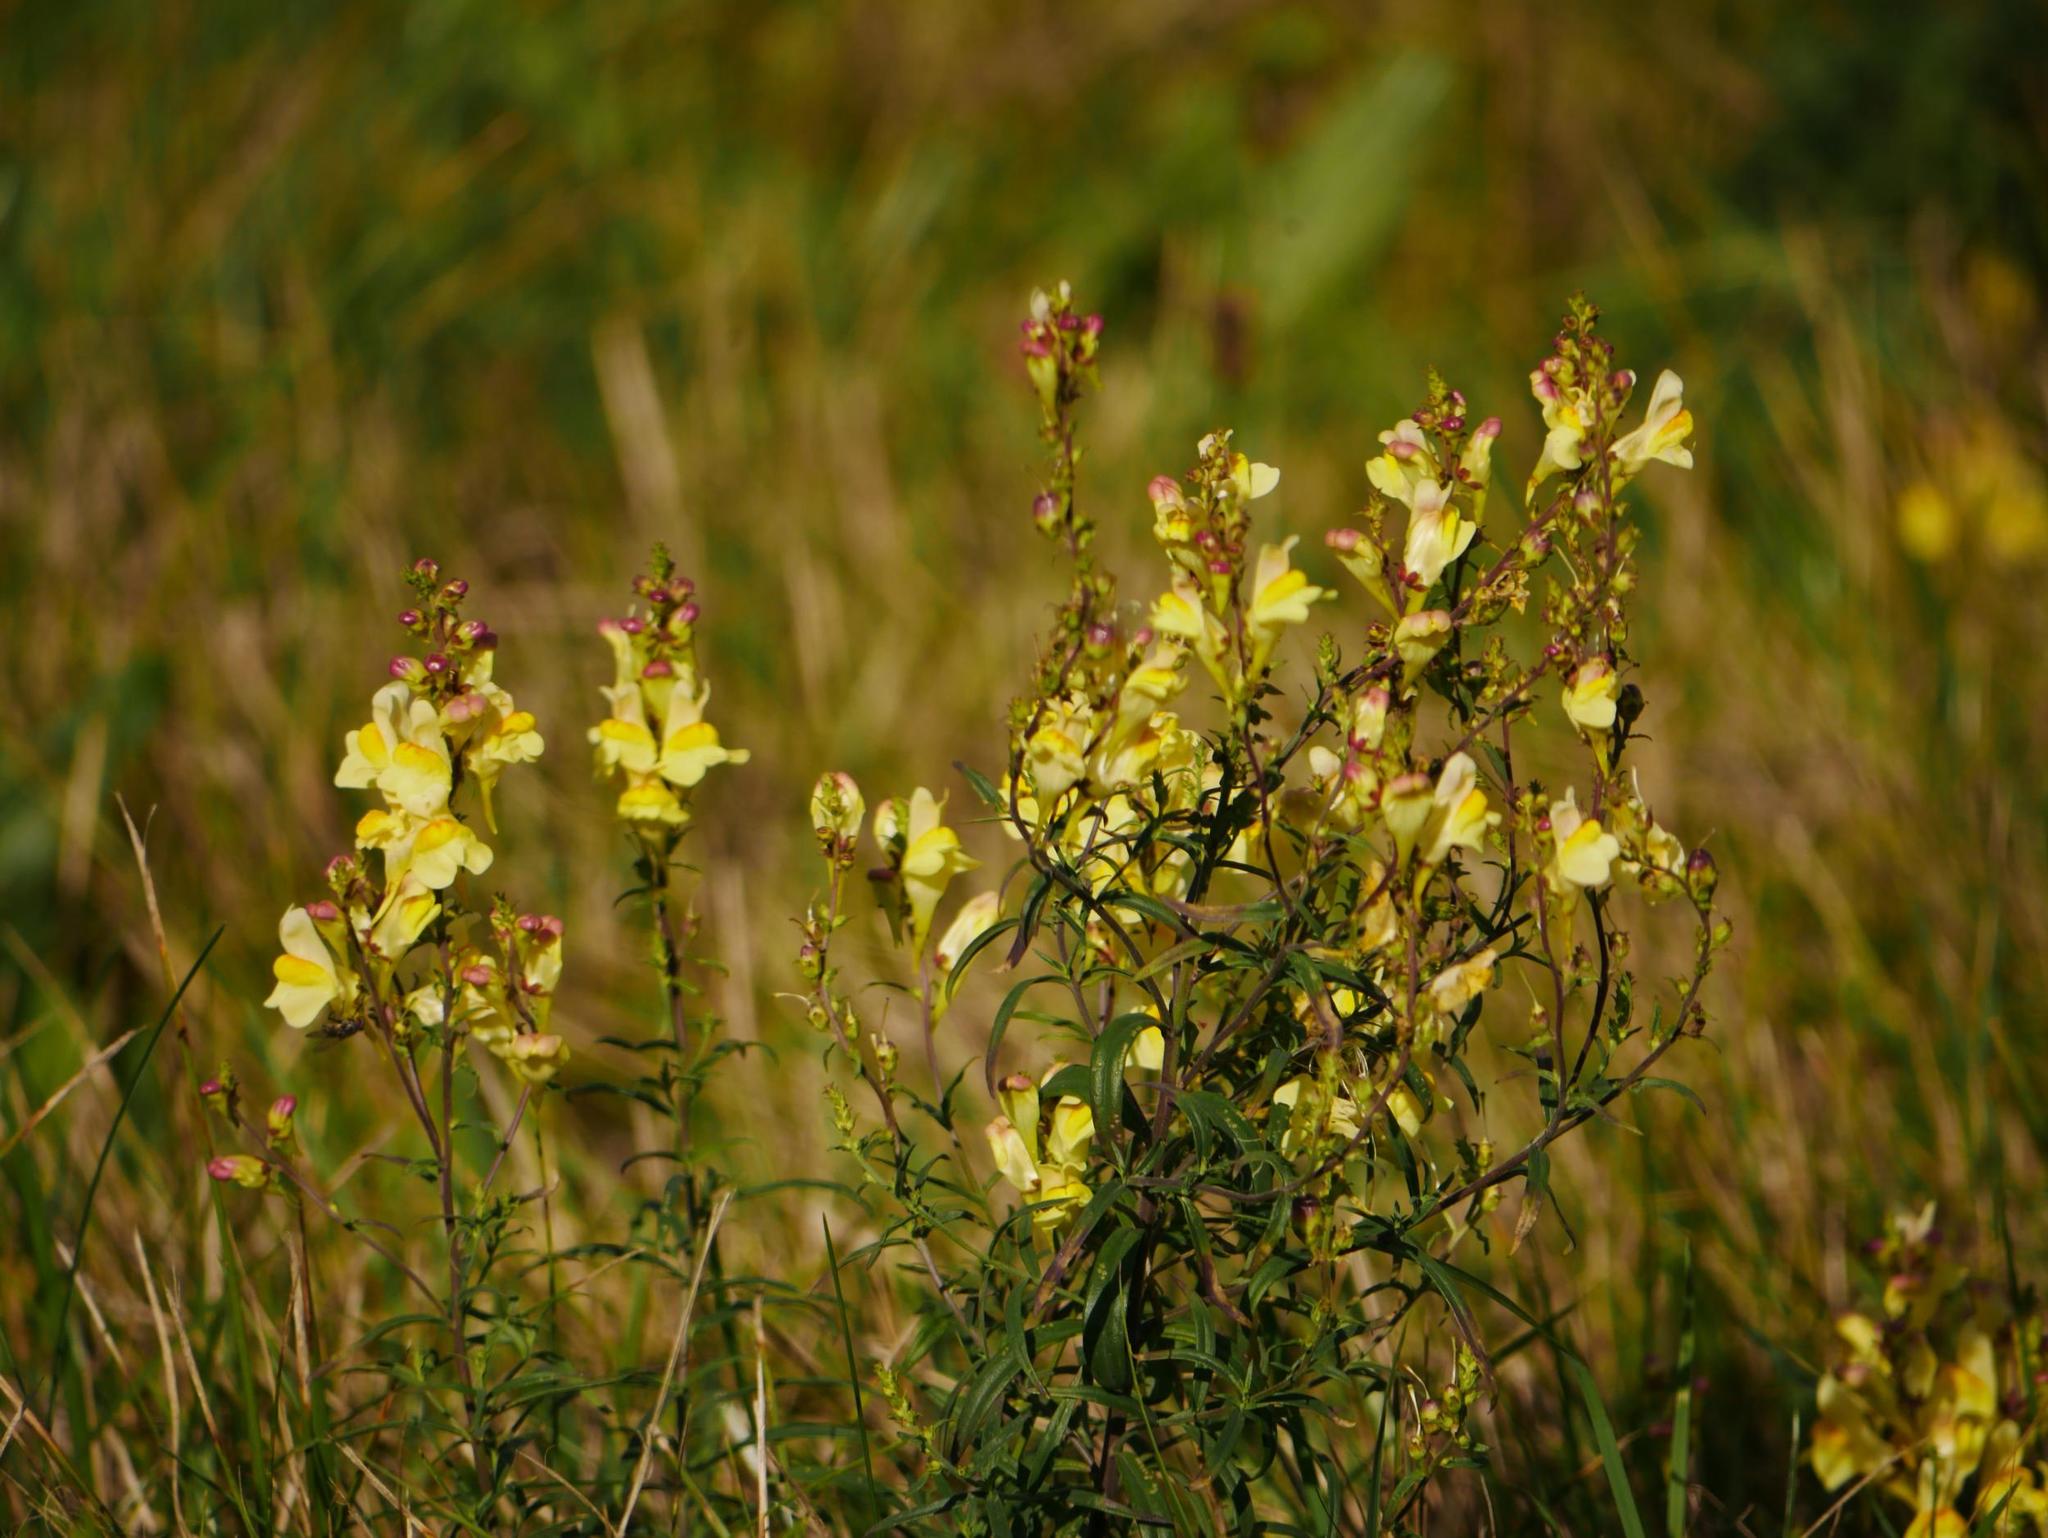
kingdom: Plantae
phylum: Tracheophyta
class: Magnoliopsida
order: Lamiales
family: Plantaginaceae
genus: Linaria
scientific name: Linaria vulgaris
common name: Butter and eggs
